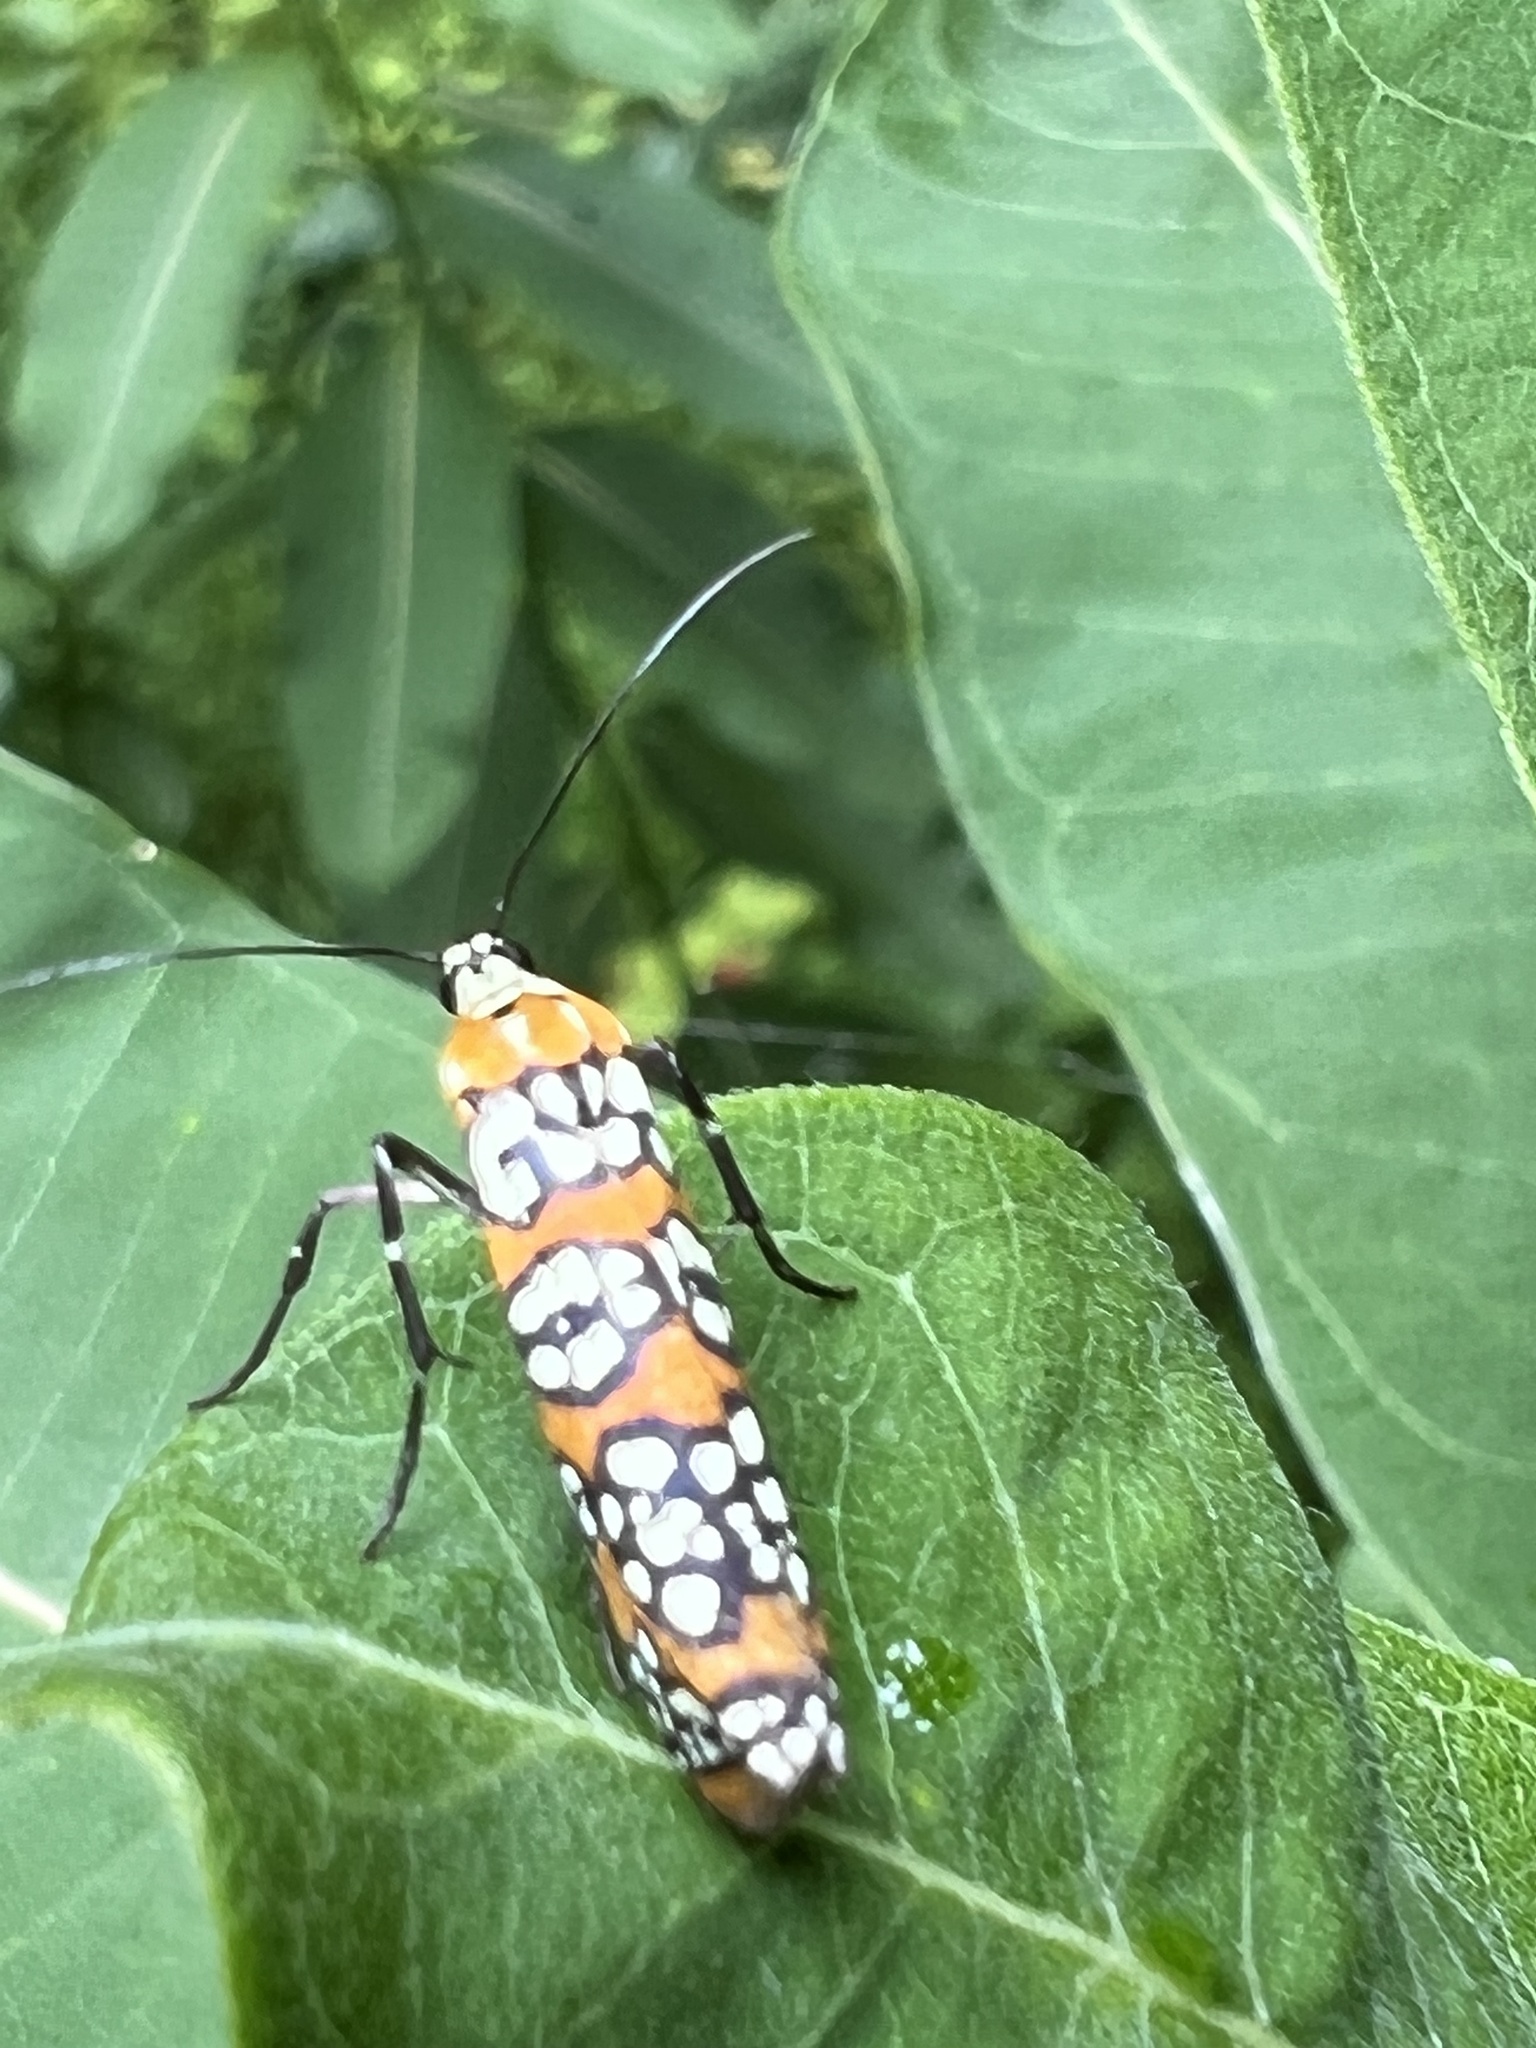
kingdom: Animalia
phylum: Arthropoda
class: Insecta
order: Lepidoptera
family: Attevidae
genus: Atteva
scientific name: Atteva punctella
